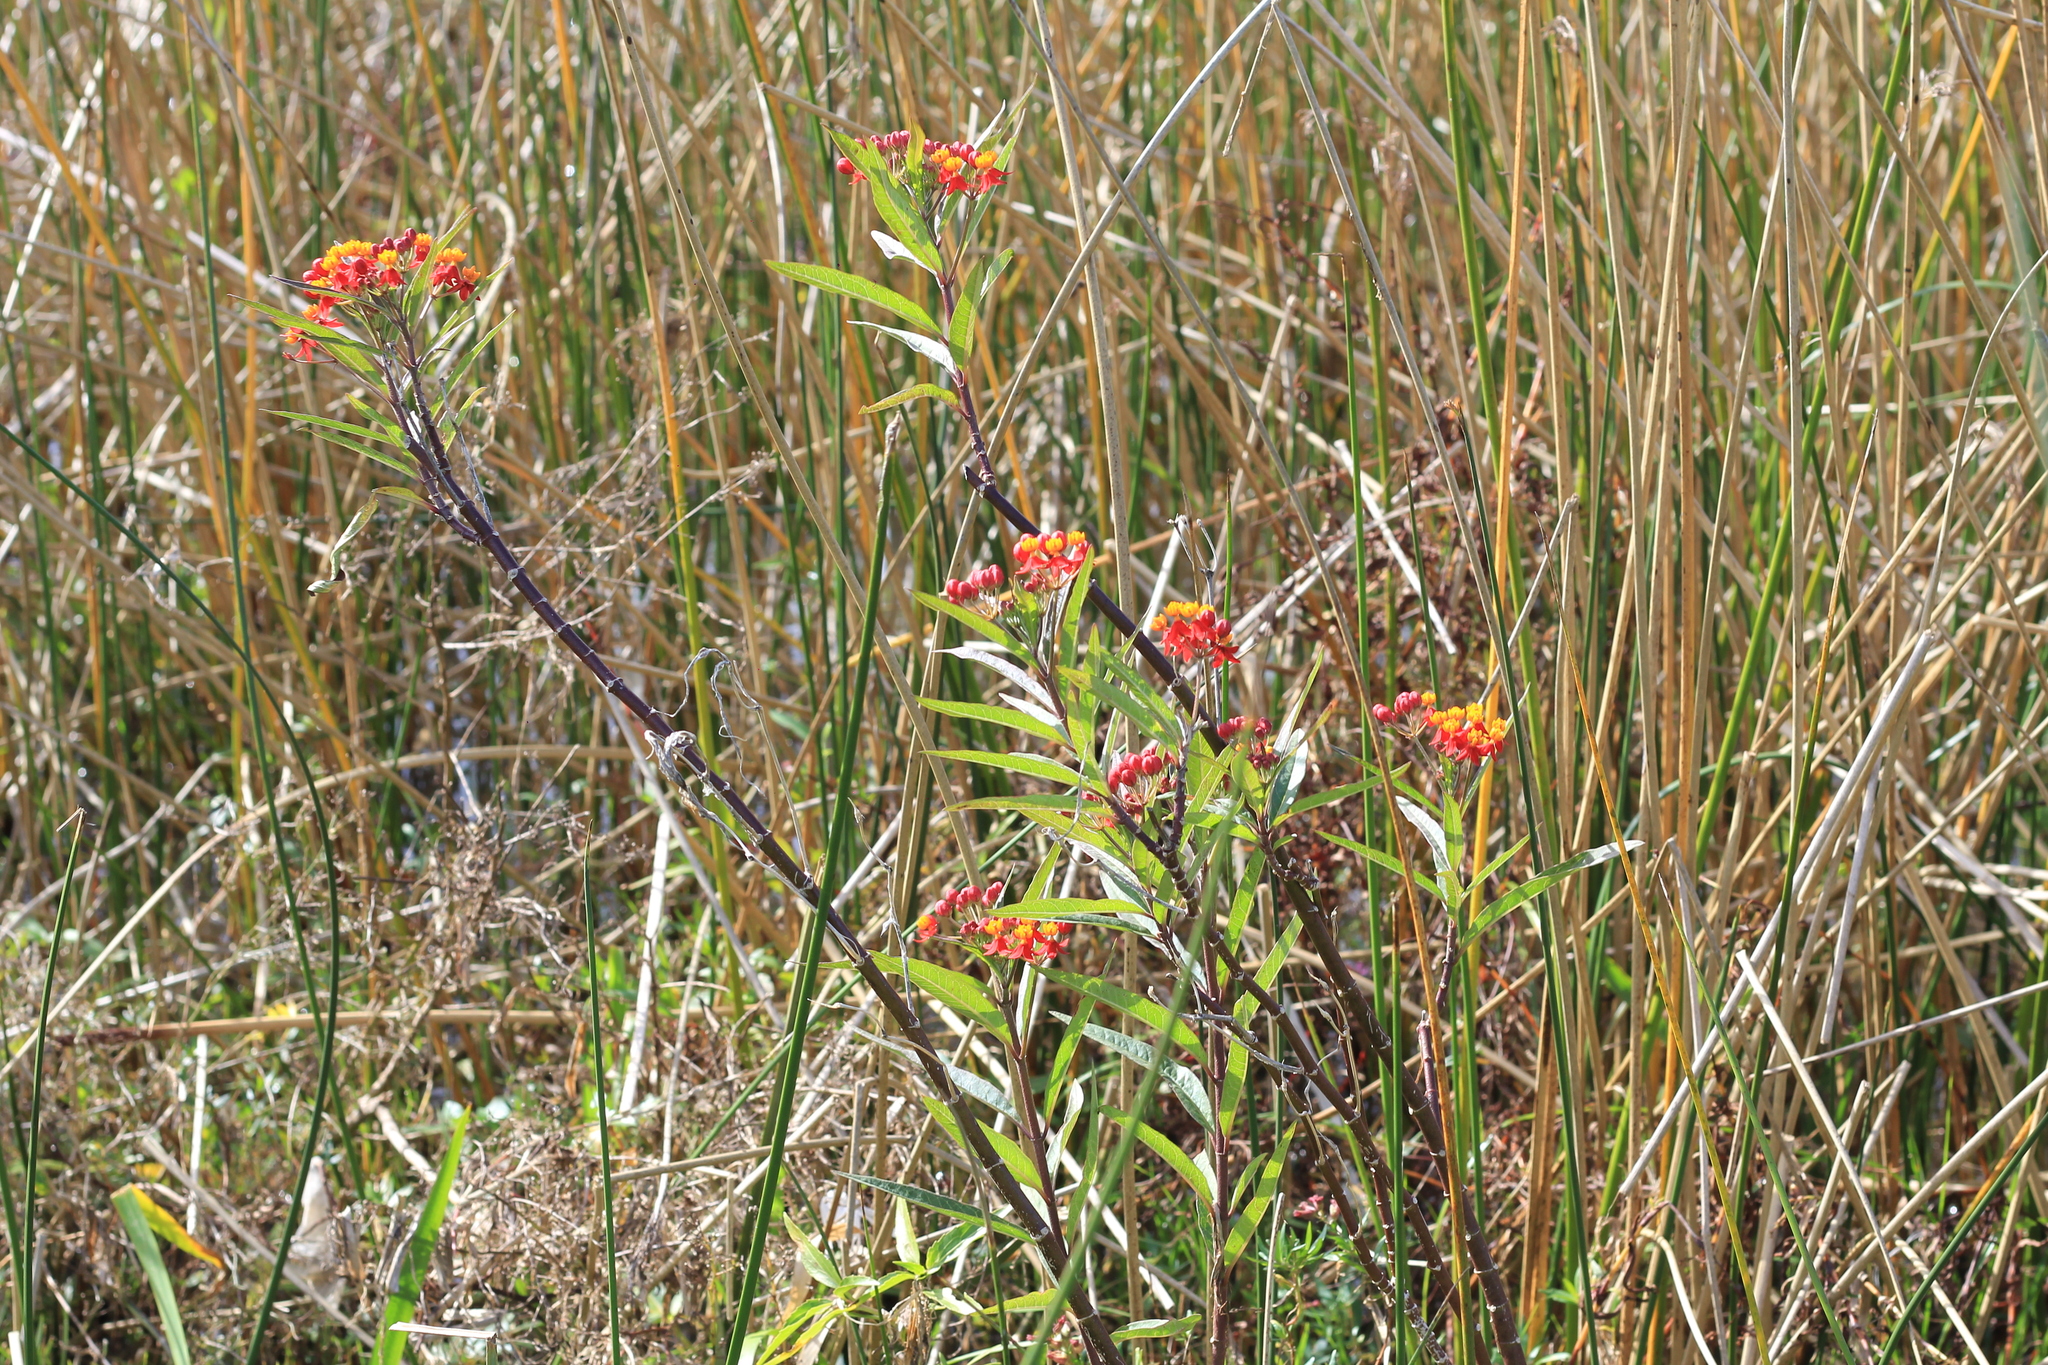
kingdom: Plantae
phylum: Tracheophyta
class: Magnoliopsida
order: Gentianales
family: Apocynaceae
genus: Asclepias
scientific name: Asclepias curassavica
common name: Bloodflower
